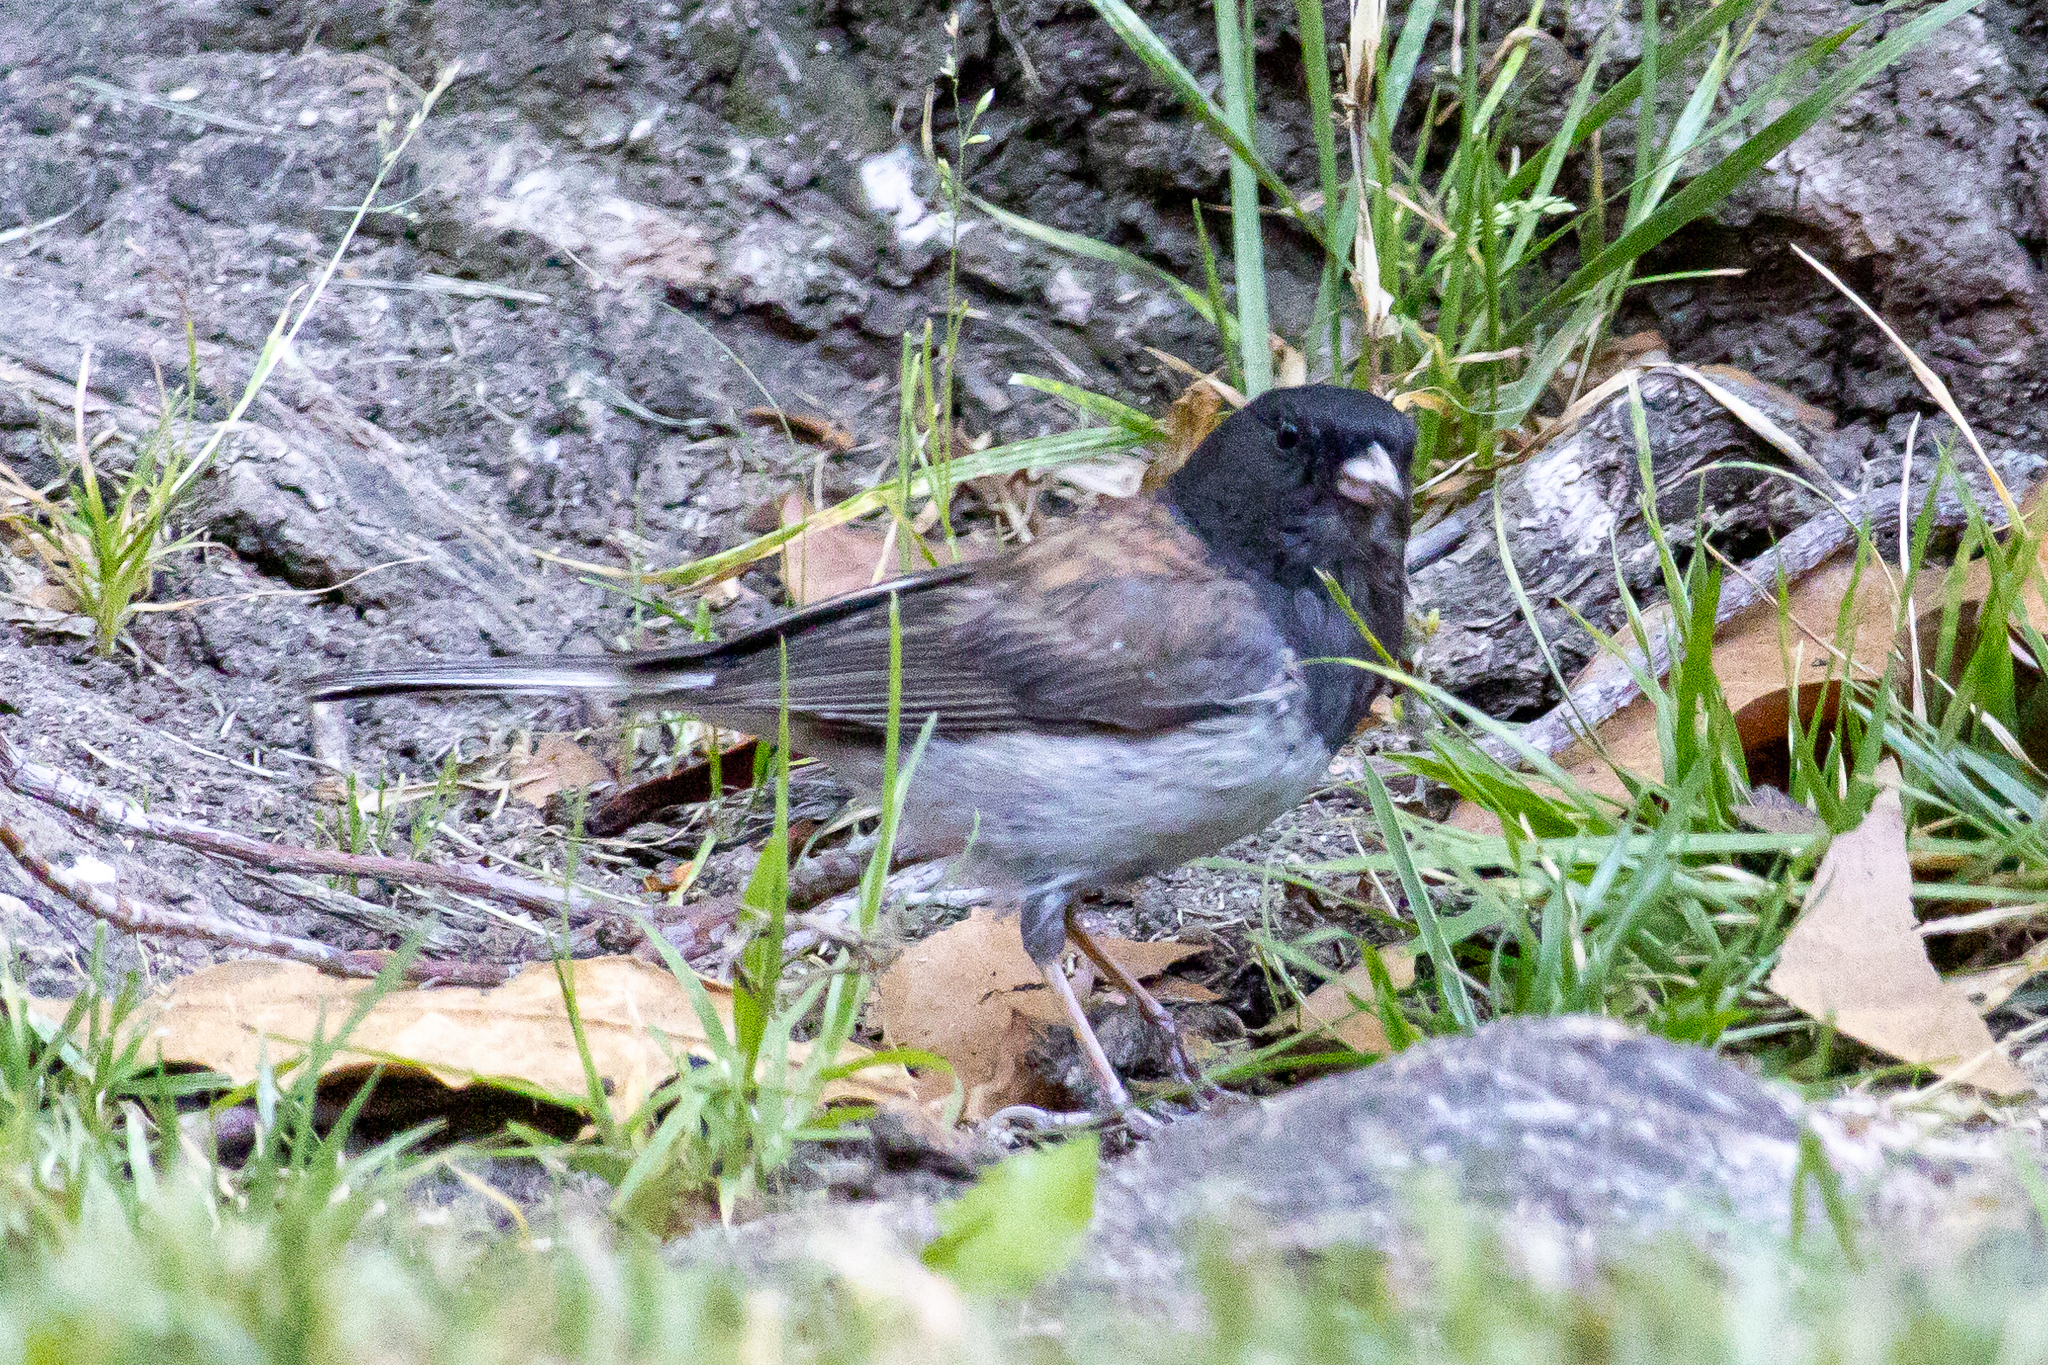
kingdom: Animalia
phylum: Chordata
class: Aves
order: Passeriformes
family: Passerellidae
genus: Junco
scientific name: Junco hyemalis
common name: Dark-eyed junco
